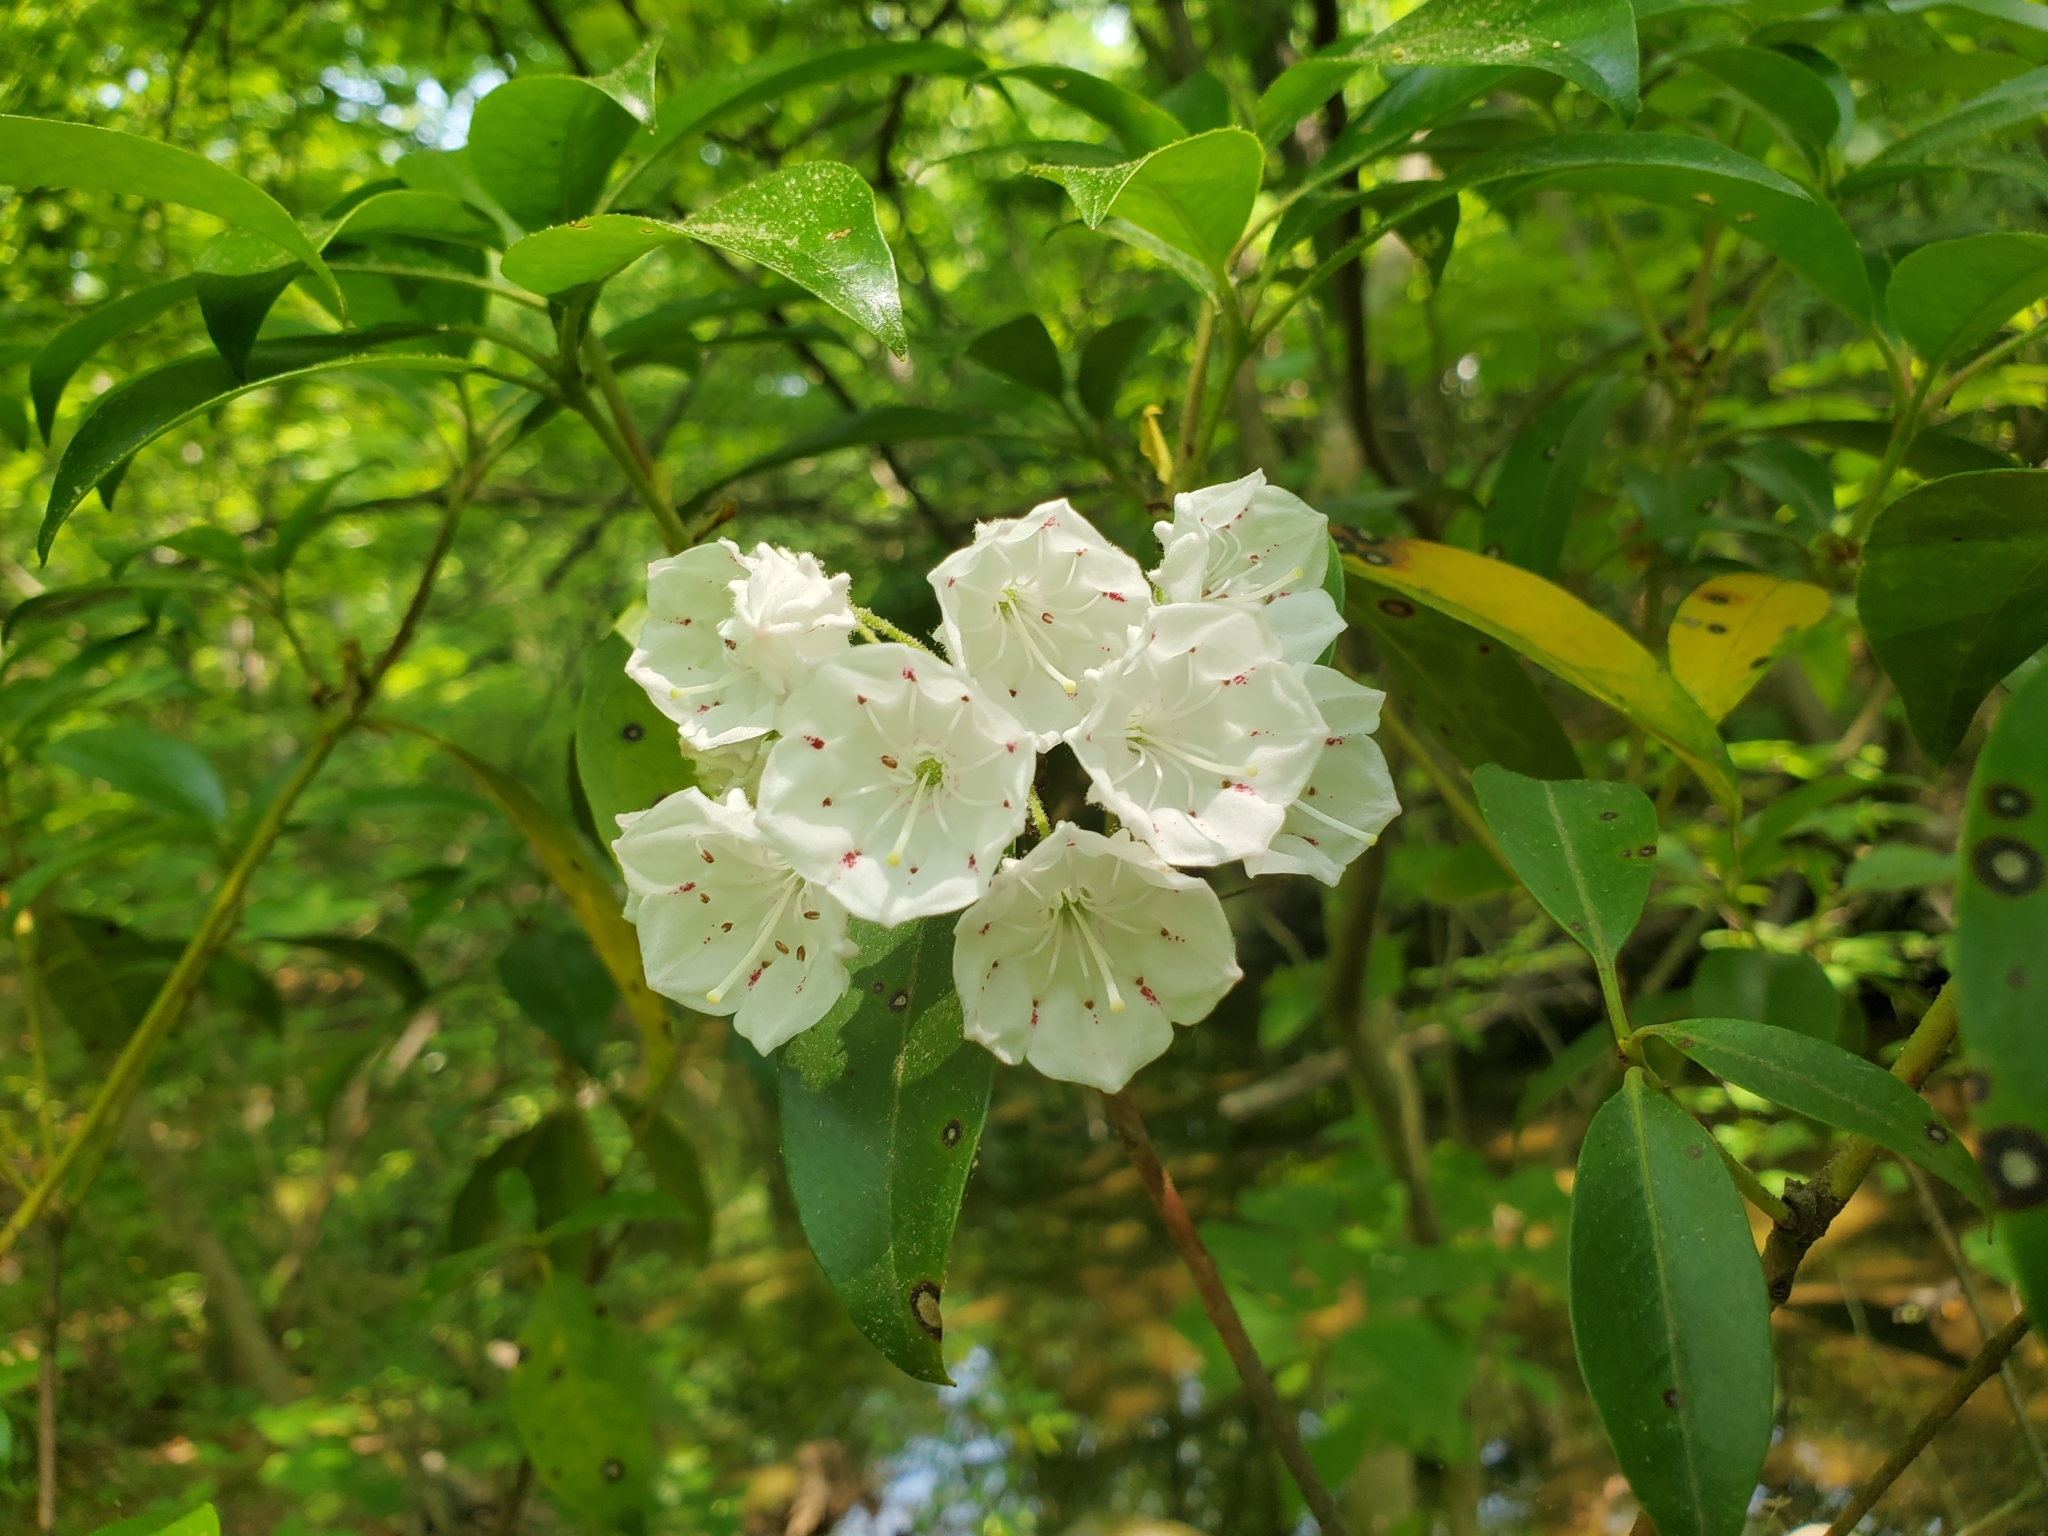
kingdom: Plantae
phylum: Tracheophyta
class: Magnoliopsida
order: Ericales
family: Ericaceae
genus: Kalmia
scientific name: Kalmia latifolia
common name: Mountain-laurel
